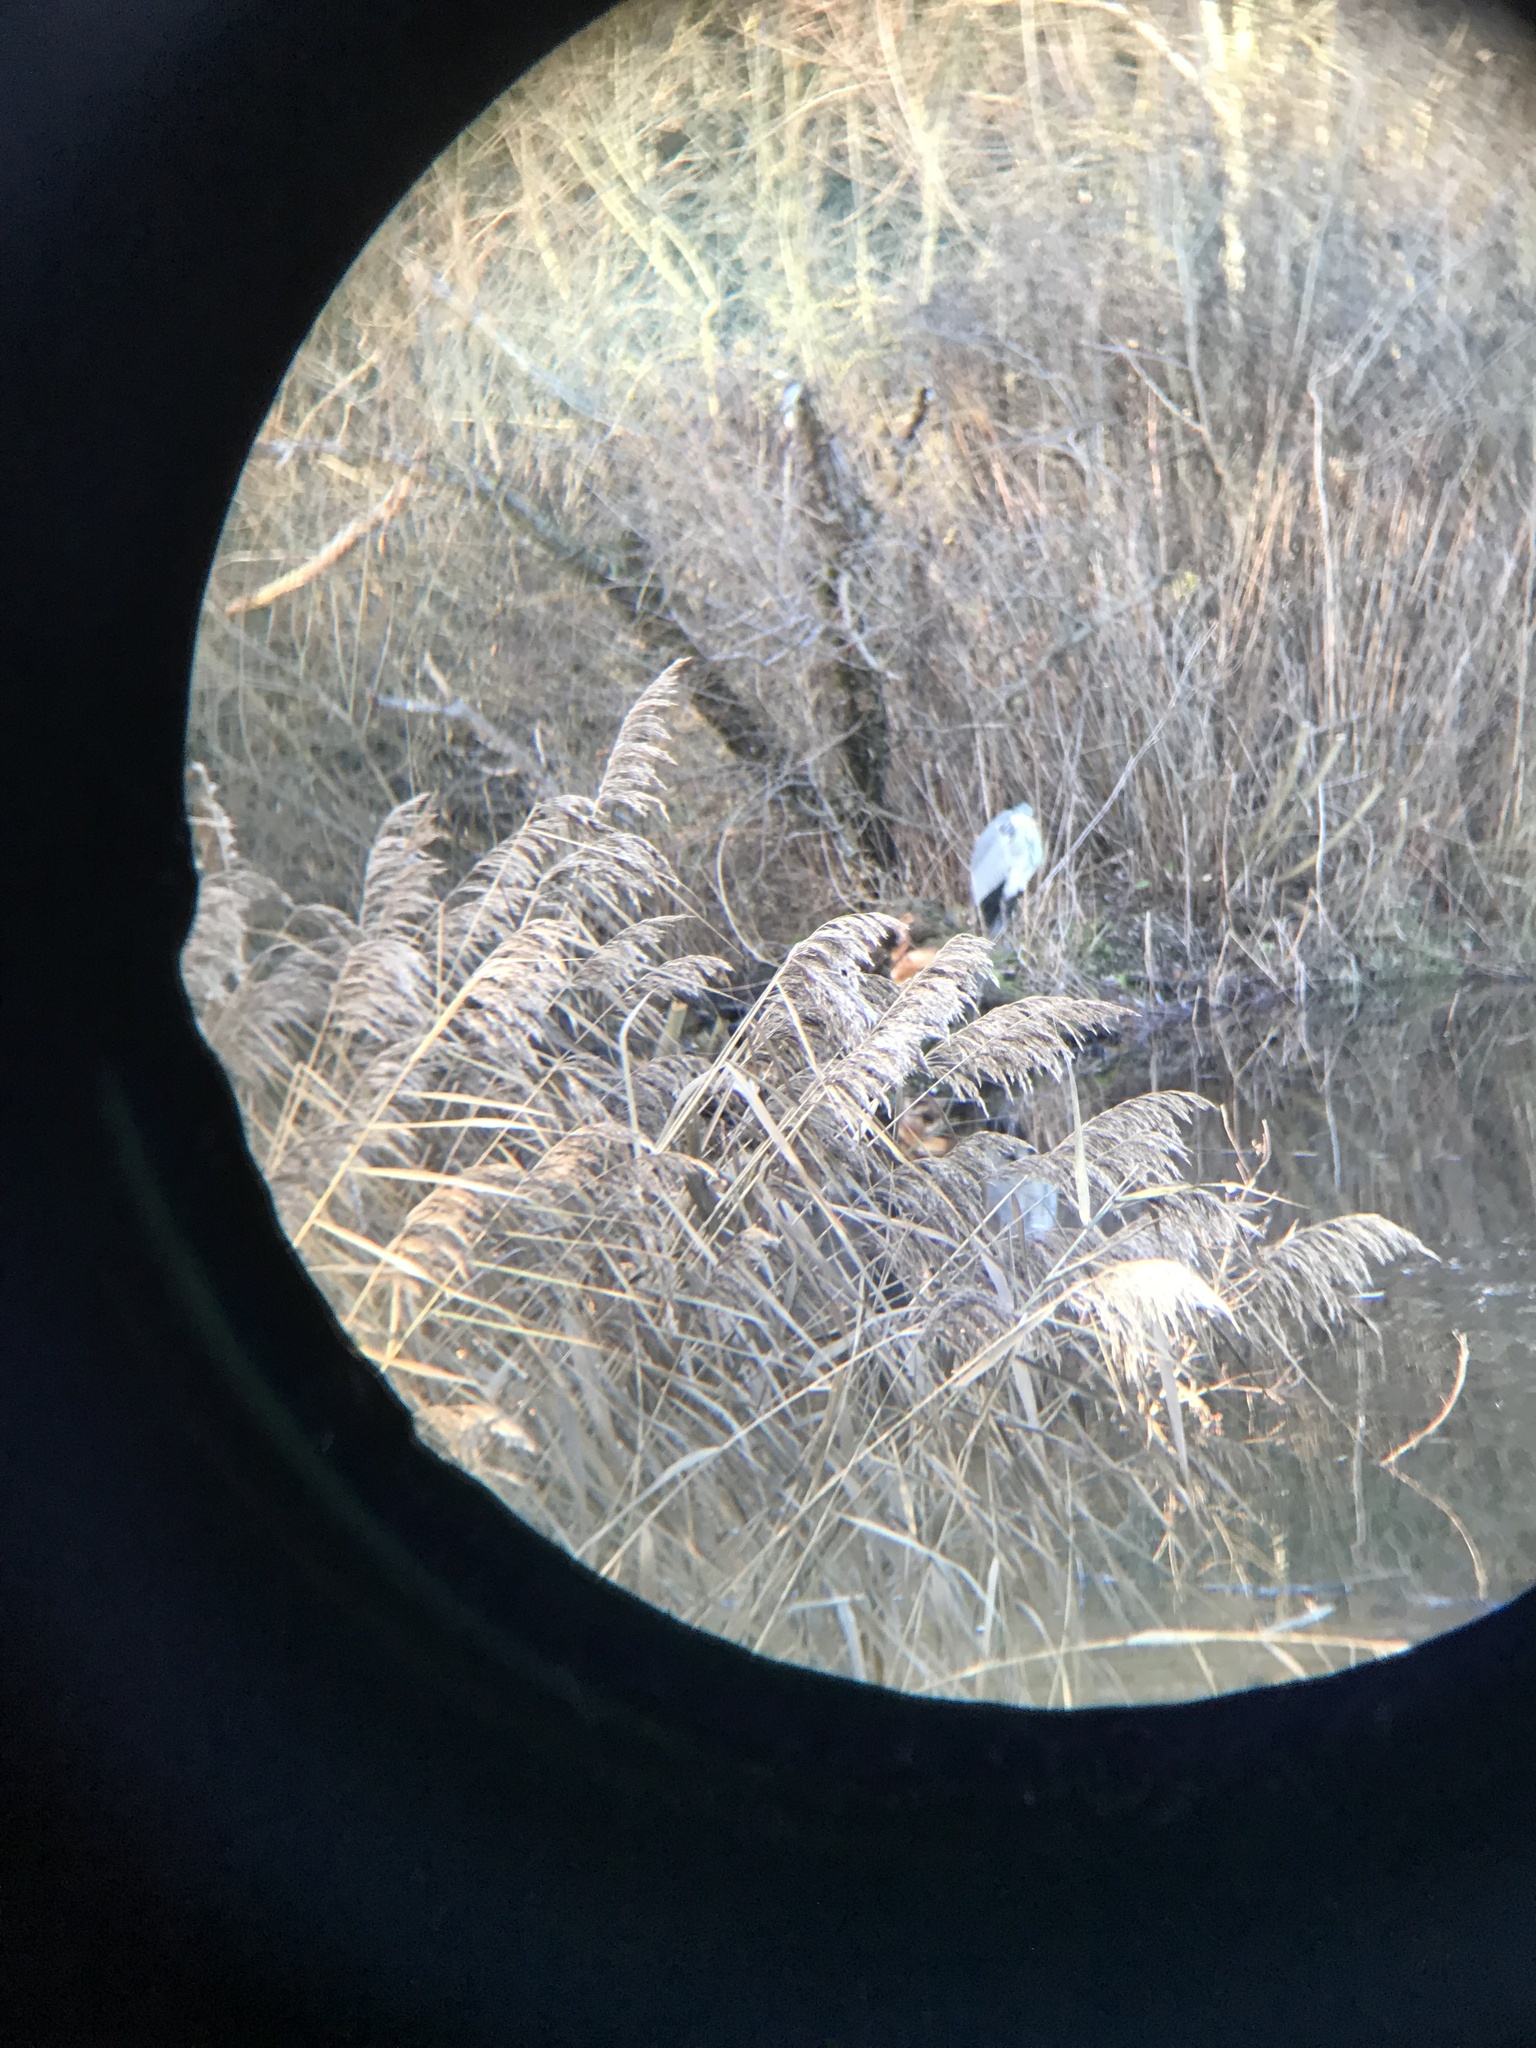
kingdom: Animalia
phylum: Chordata
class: Aves
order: Pelecaniformes
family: Ardeidae
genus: Ardea
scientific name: Ardea cinerea
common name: Grey heron
